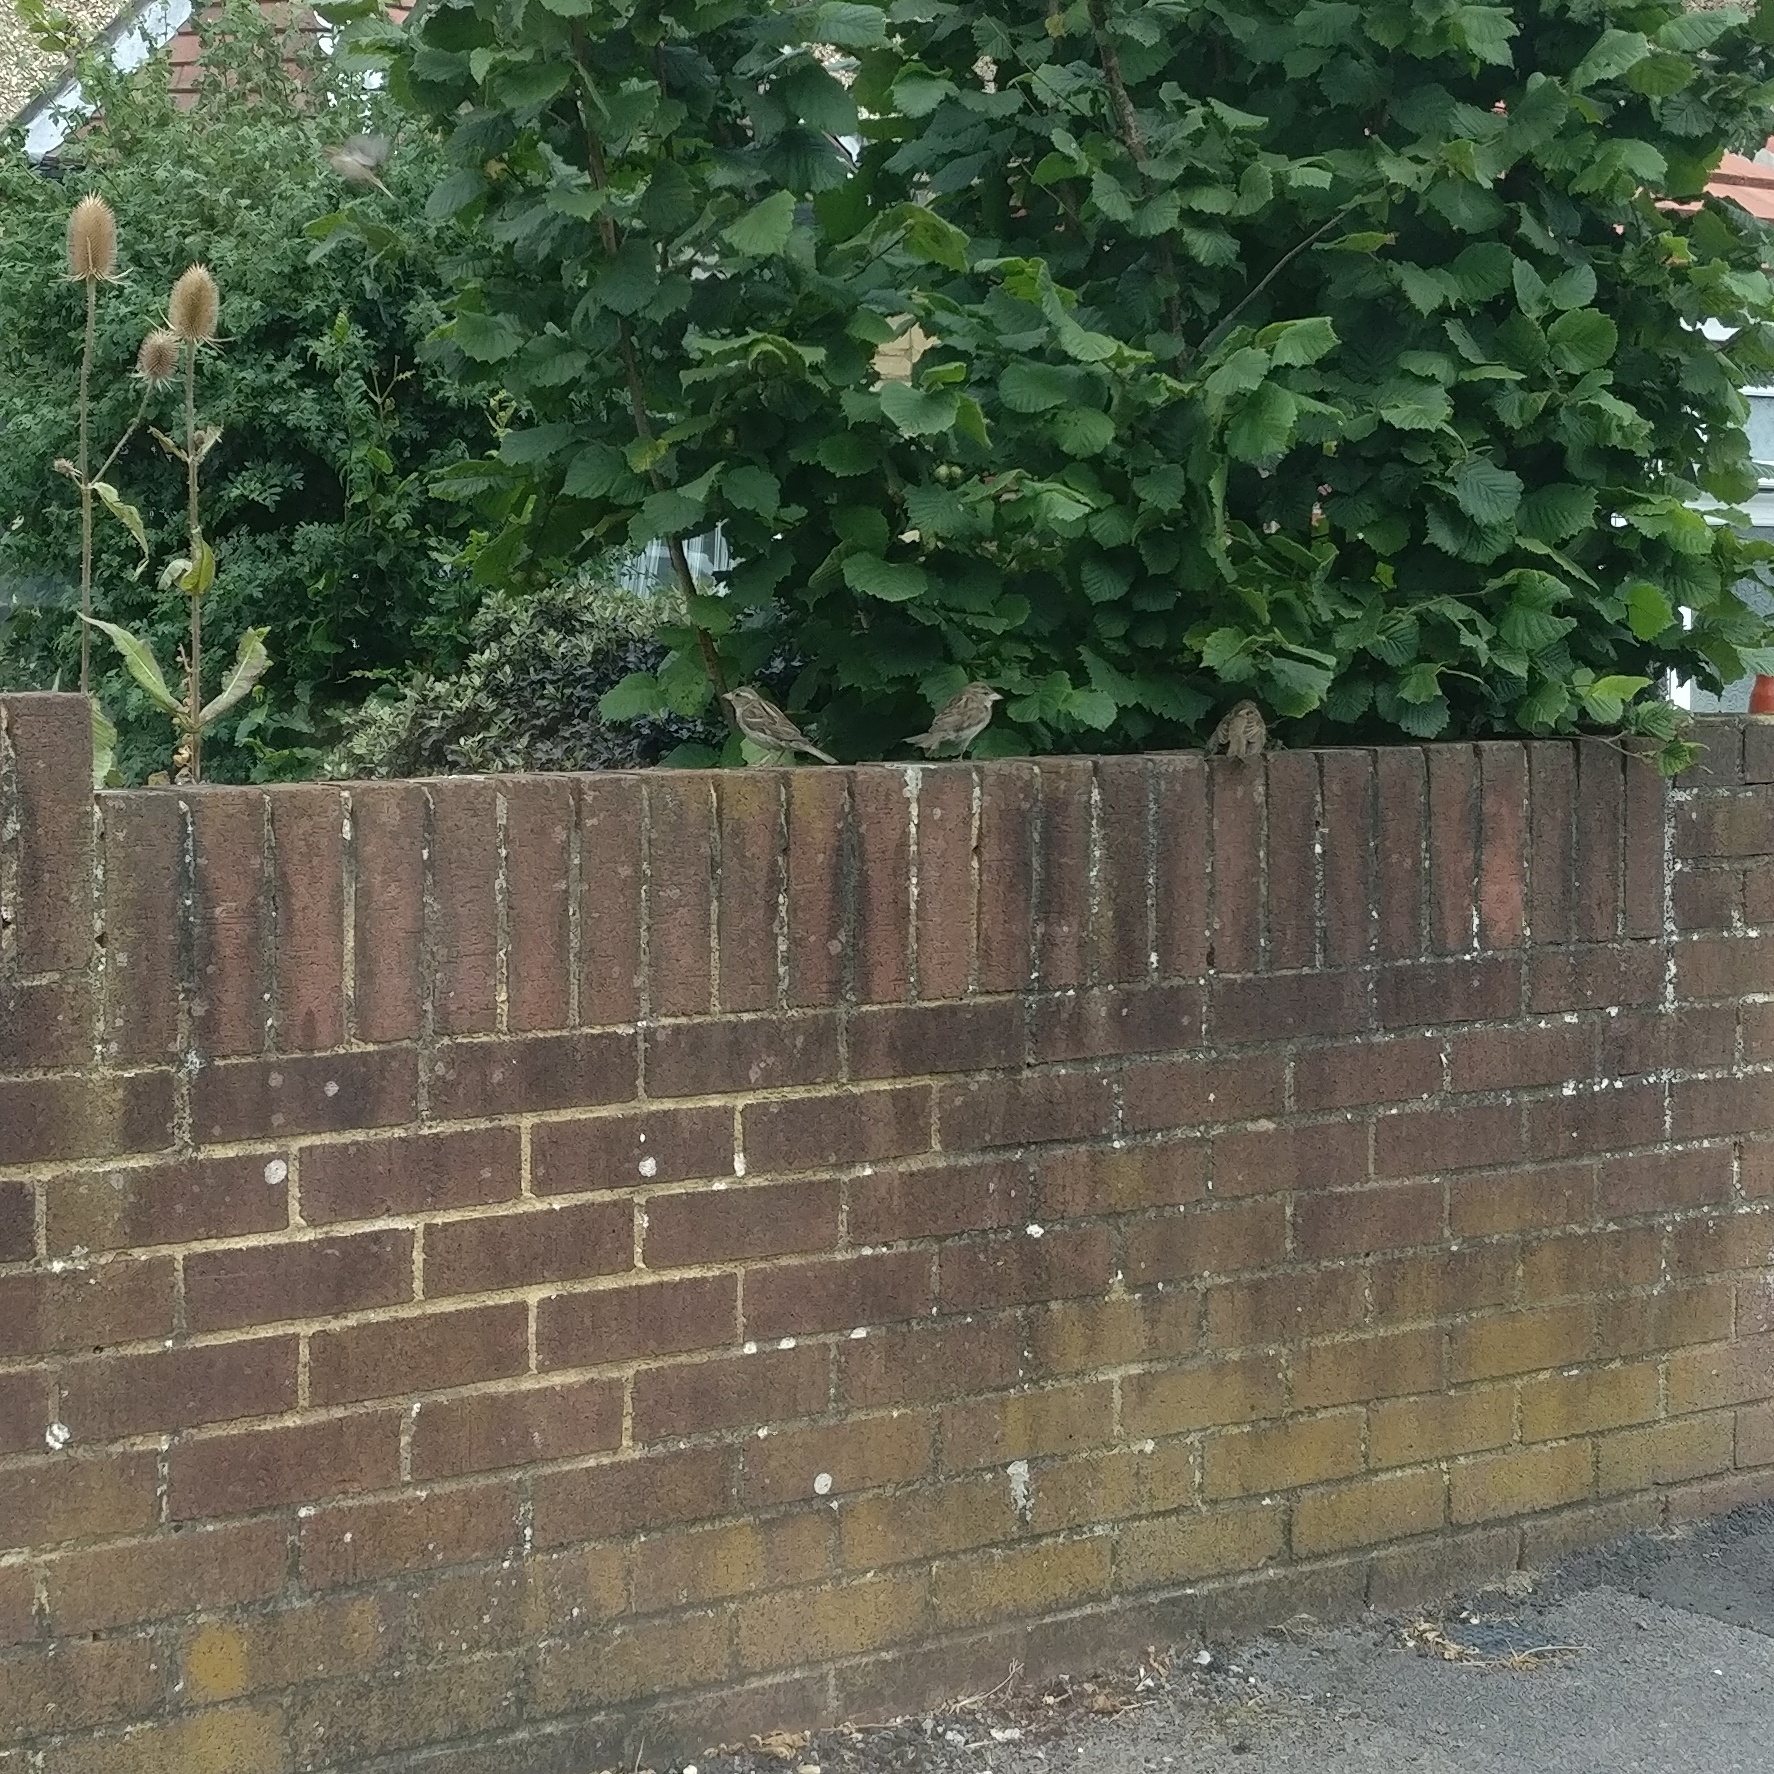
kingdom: Animalia
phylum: Chordata
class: Aves
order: Passeriformes
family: Passeridae
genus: Passer
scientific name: Passer domesticus
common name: House sparrow
